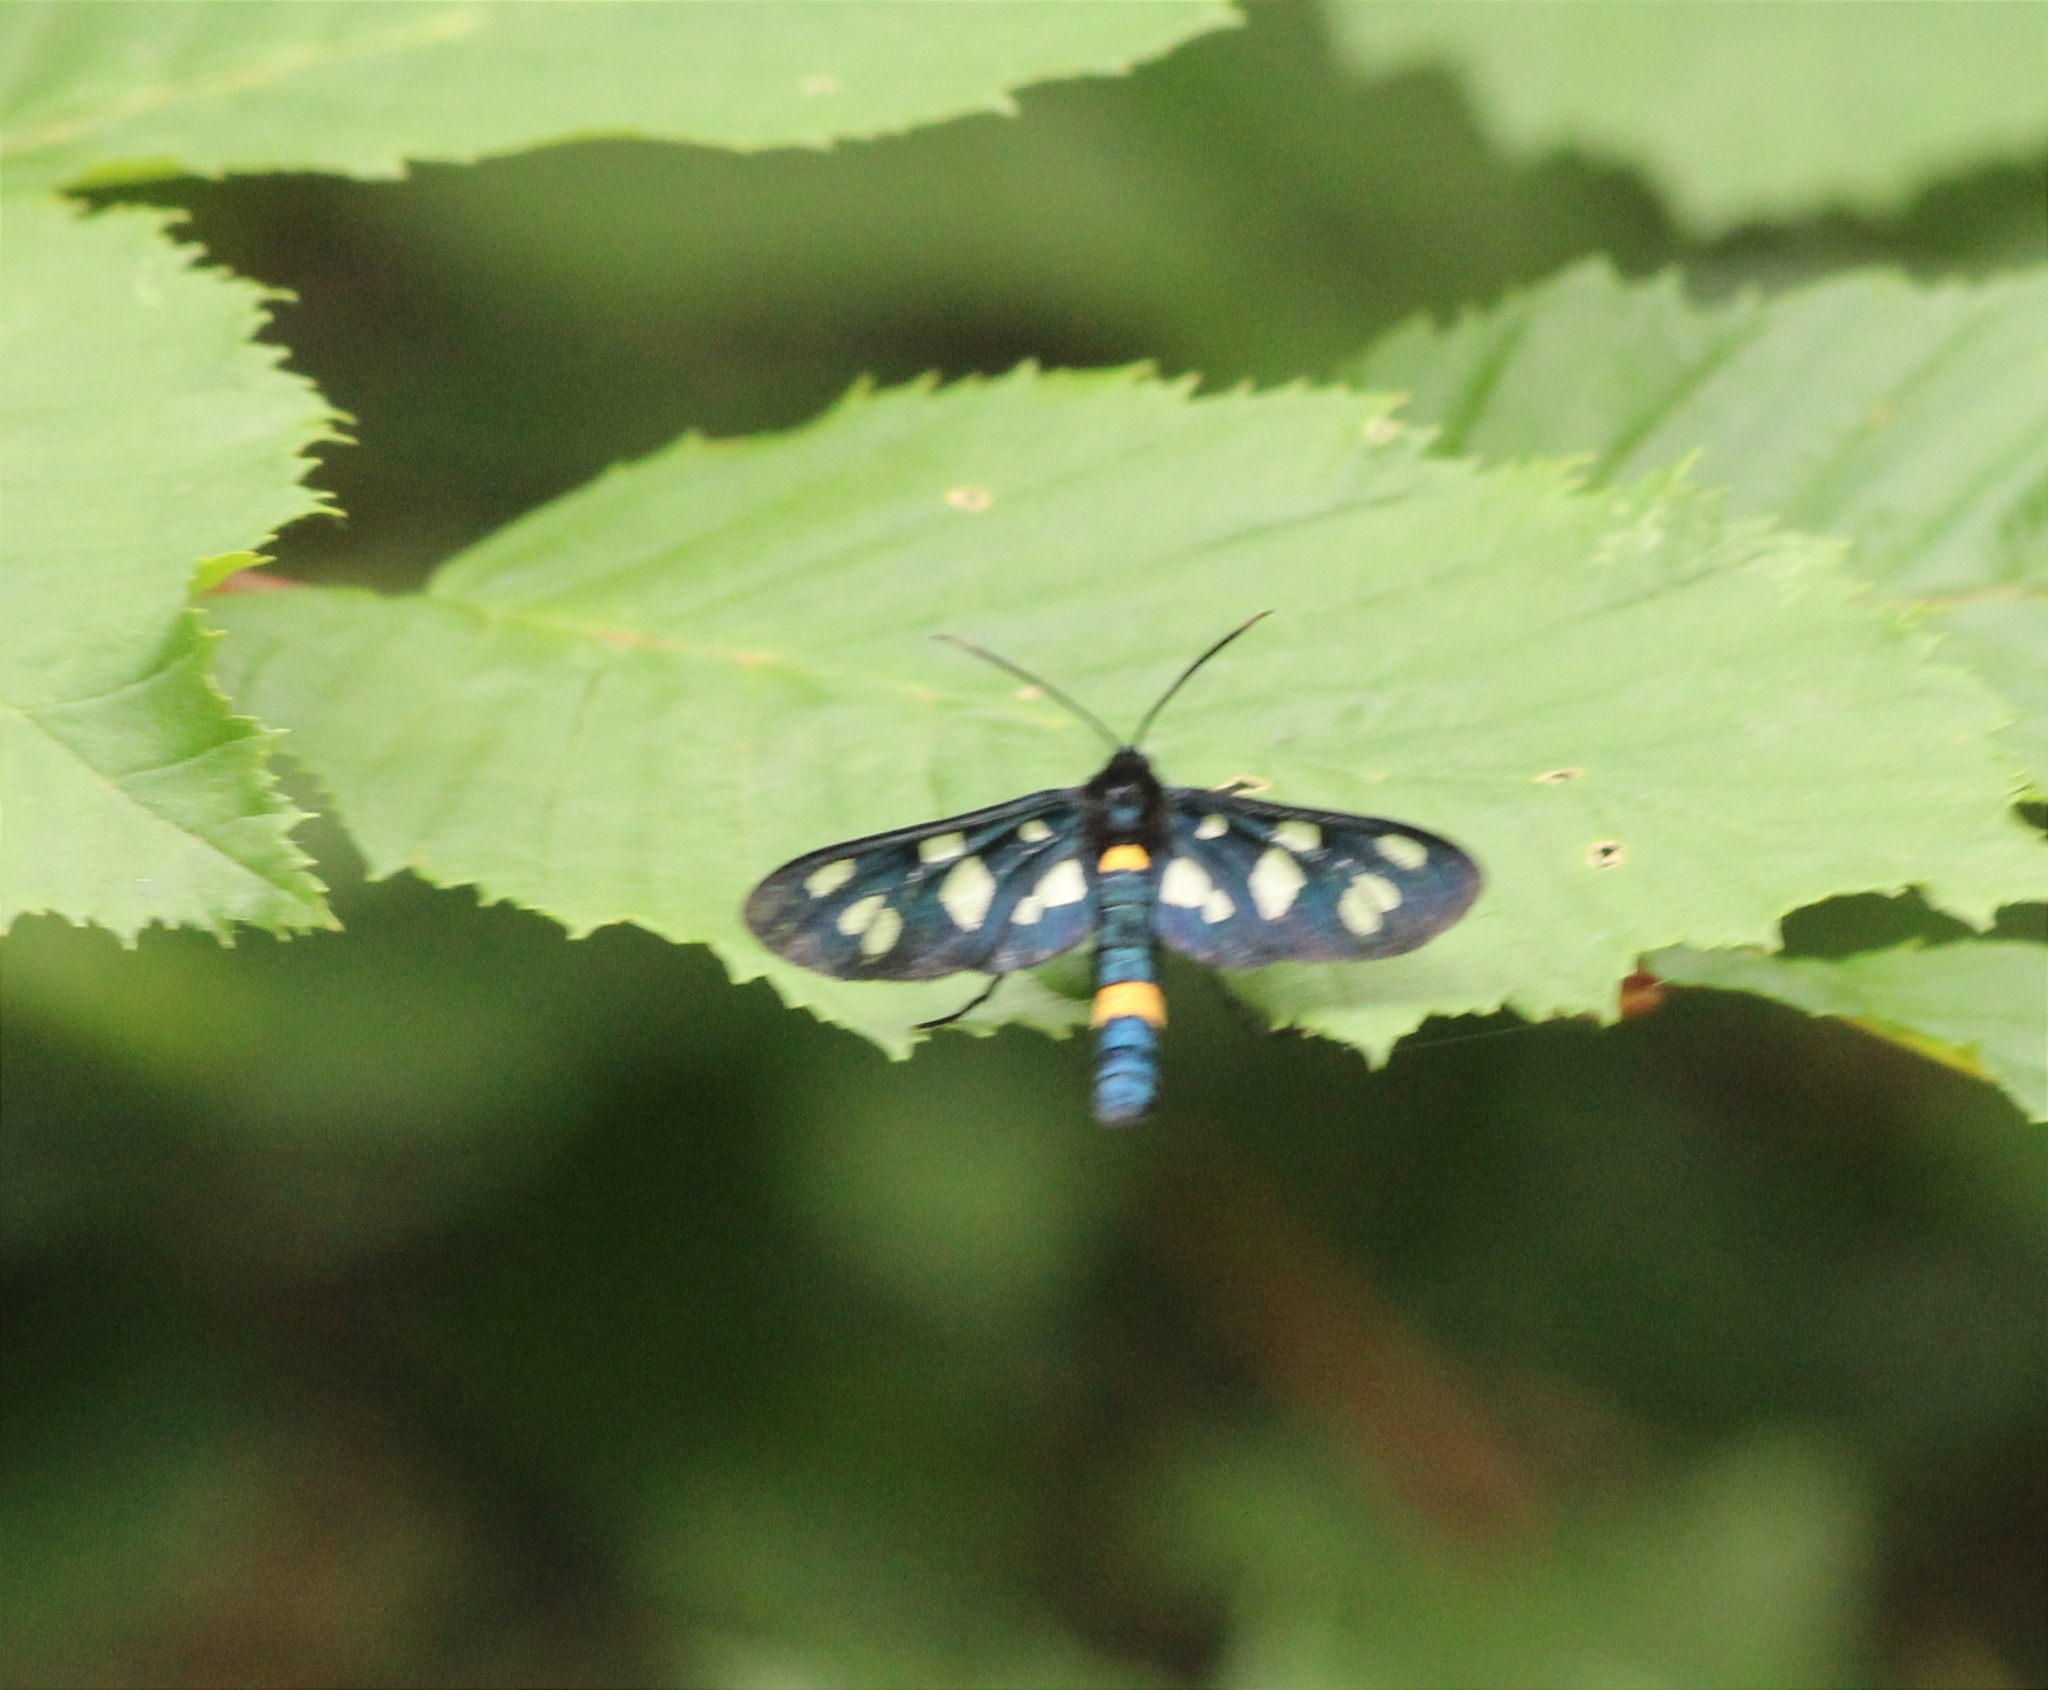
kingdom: Animalia
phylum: Arthropoda
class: Insecta
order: Lepidoptera
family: Erebidae
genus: Amata
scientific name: Amata nigricornis
